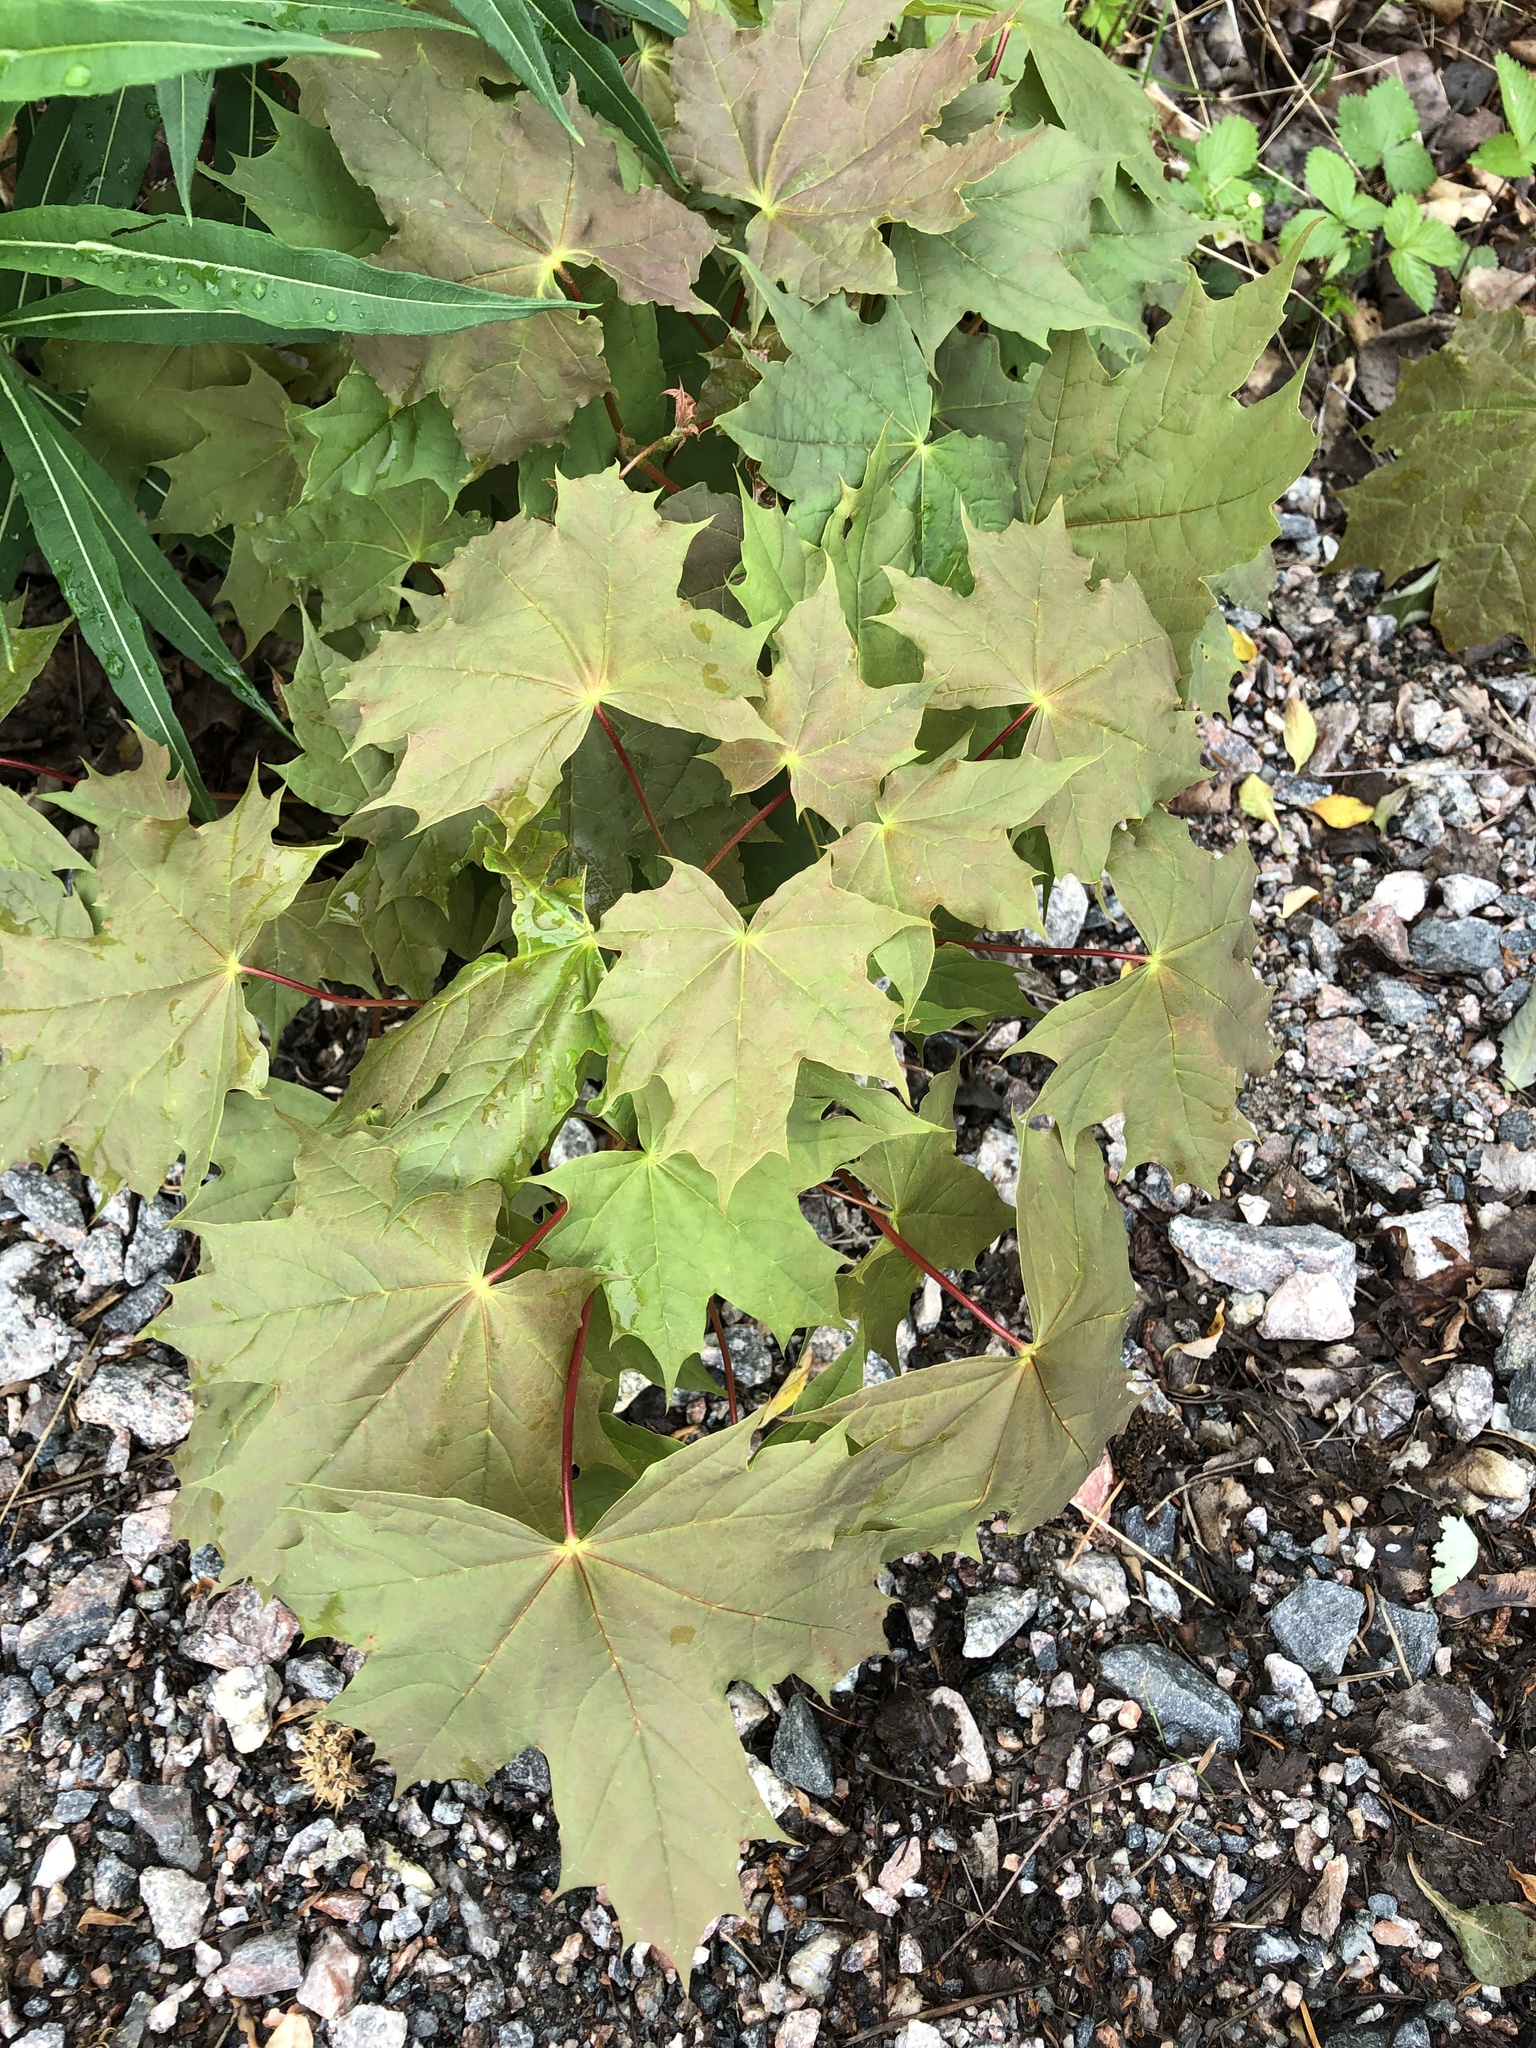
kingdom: Plantae
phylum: Tracheophyta
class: Magnoliopsida
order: Sapindales
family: Sapindaceae
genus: Acer
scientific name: Acer platanoides
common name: Norway maple
